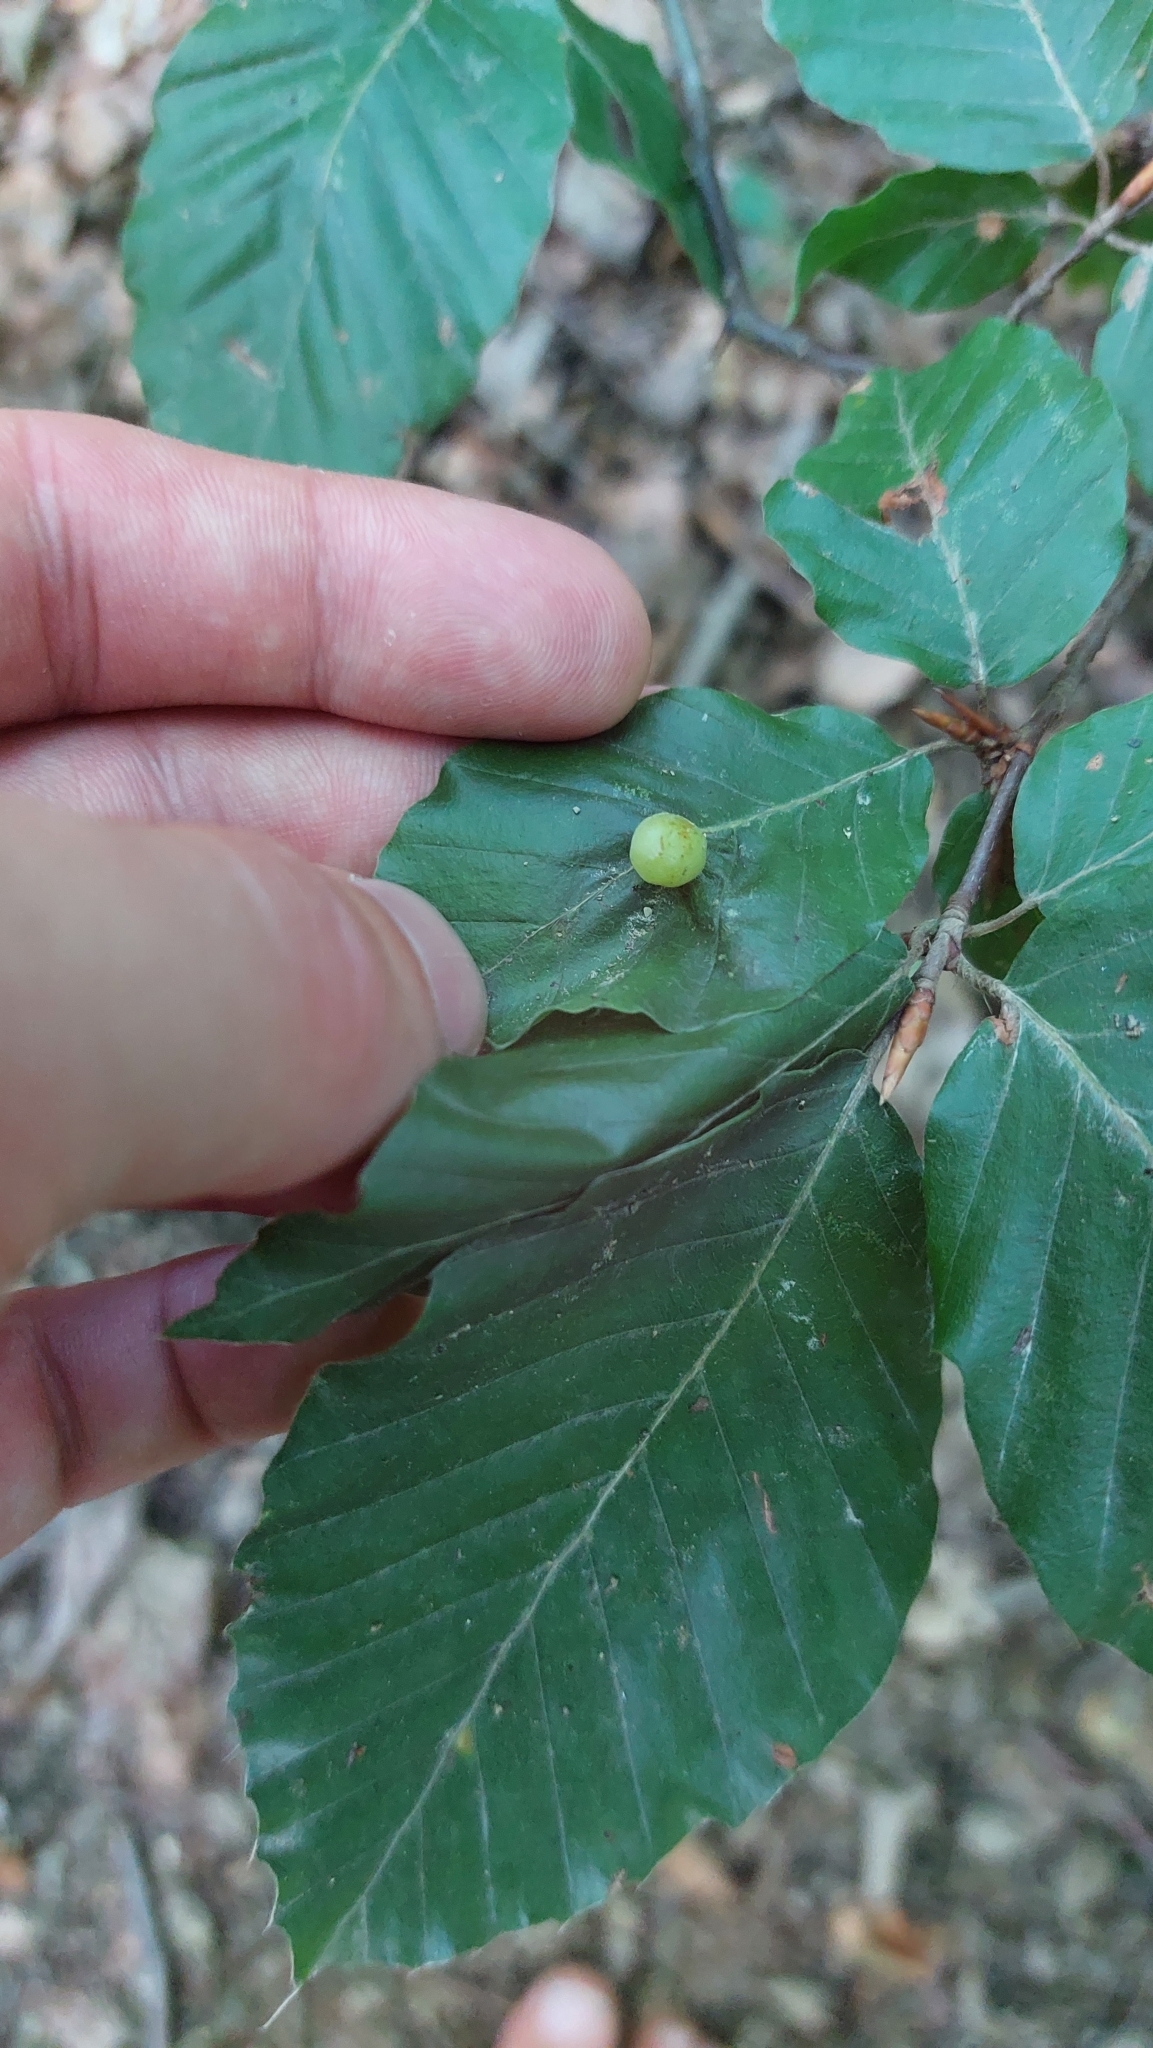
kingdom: Animalia
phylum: Arthropoda
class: Insecta
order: Diptera
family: Cecidomyiidae
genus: Mikiola
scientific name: Mikiola fagi
